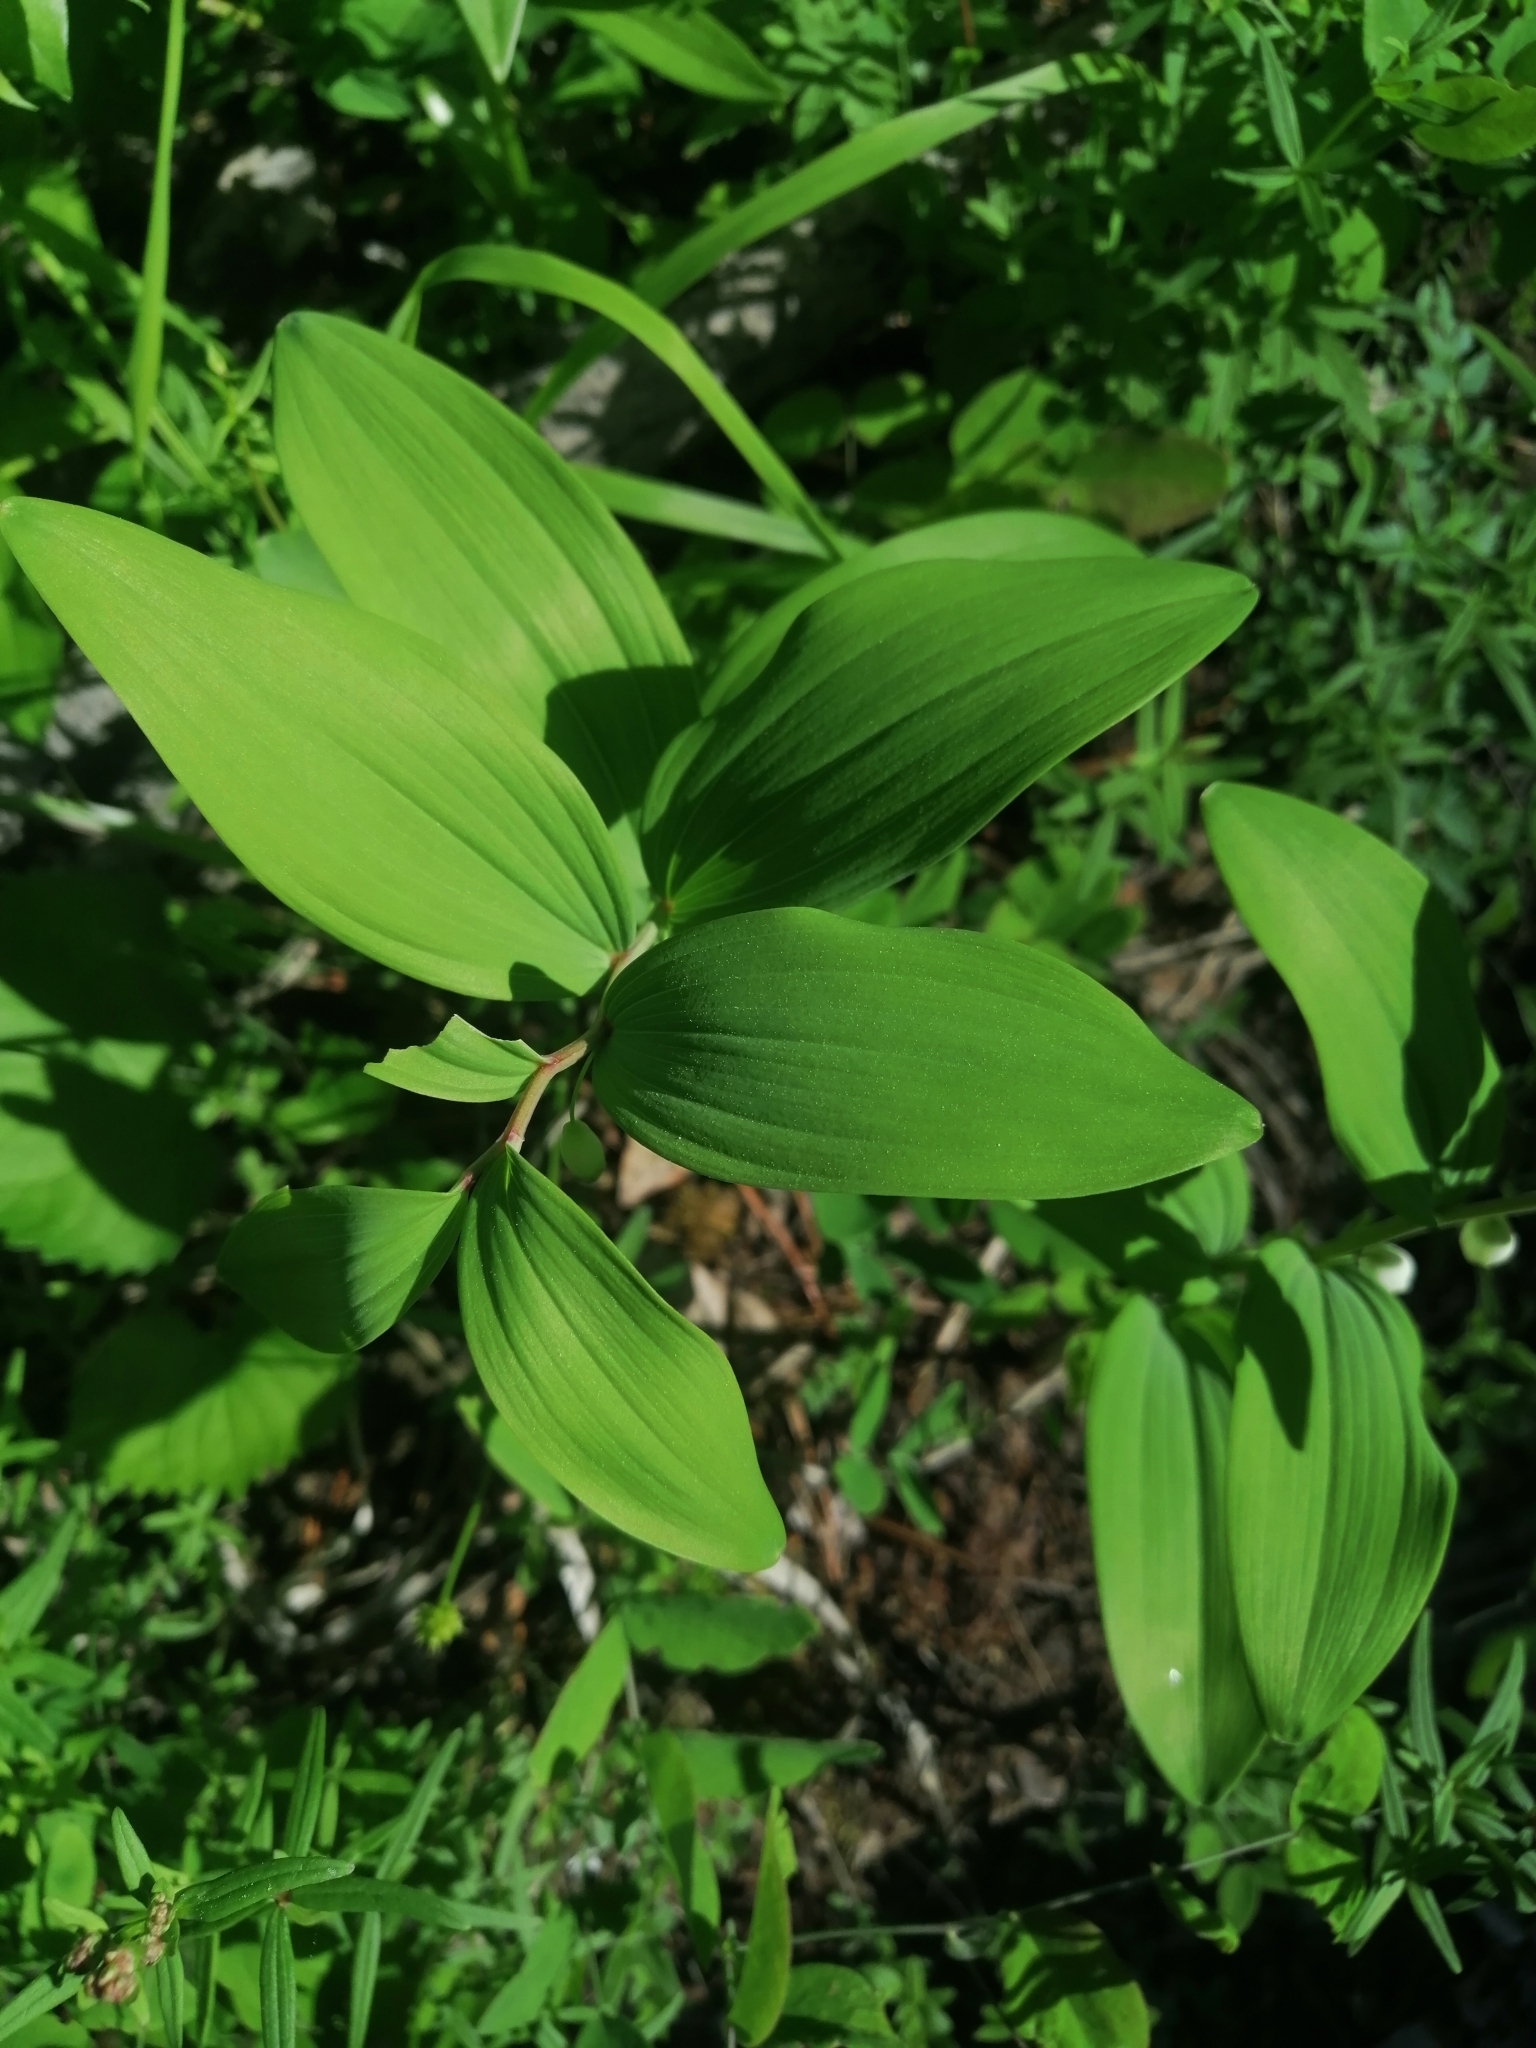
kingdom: Plantae
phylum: Tracheophyta
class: Liliopsida
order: Asparagales
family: Asparagaceae
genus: Polygonatum
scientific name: Polygonatum odoratum
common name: Angular solomon's-seal
